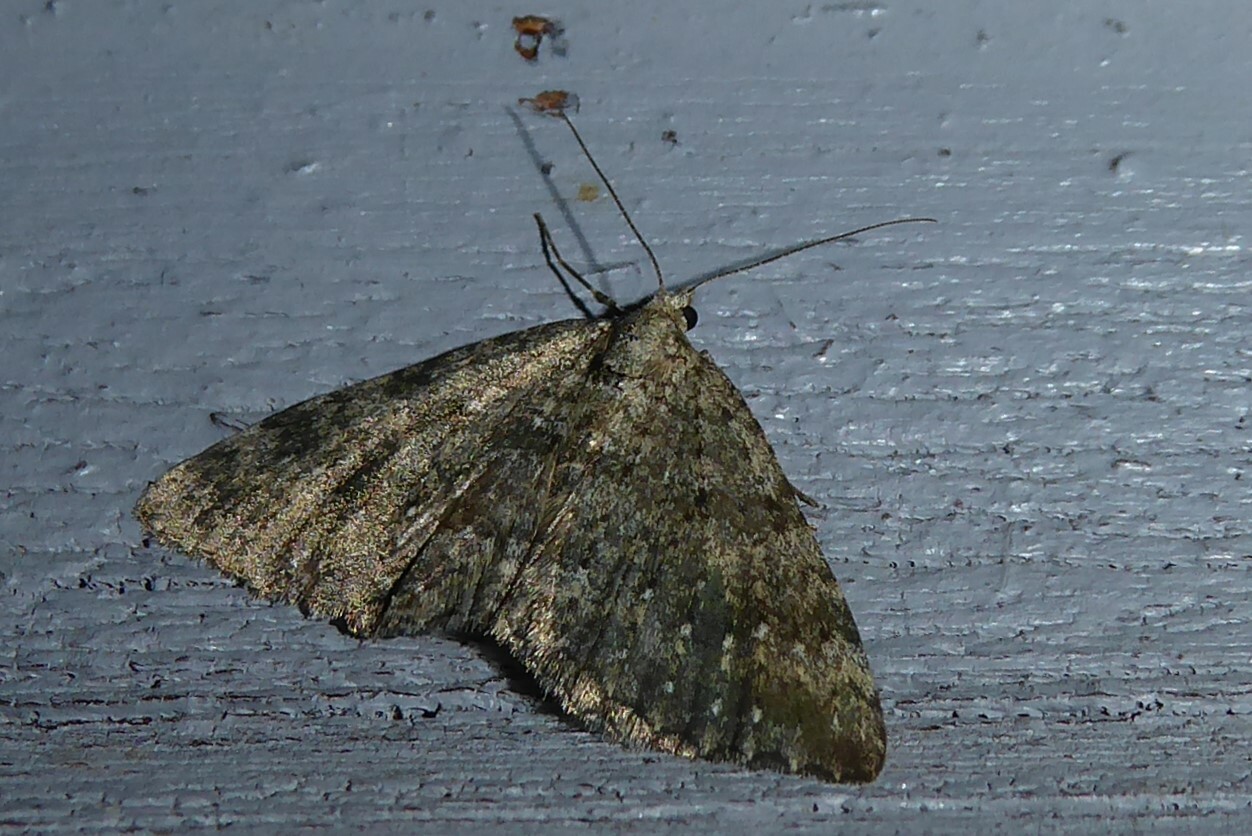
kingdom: Animalia
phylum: Arthropoda
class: Insecta
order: Lepidoptera
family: Geometridae
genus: Helastia
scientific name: Helastia corcularia
